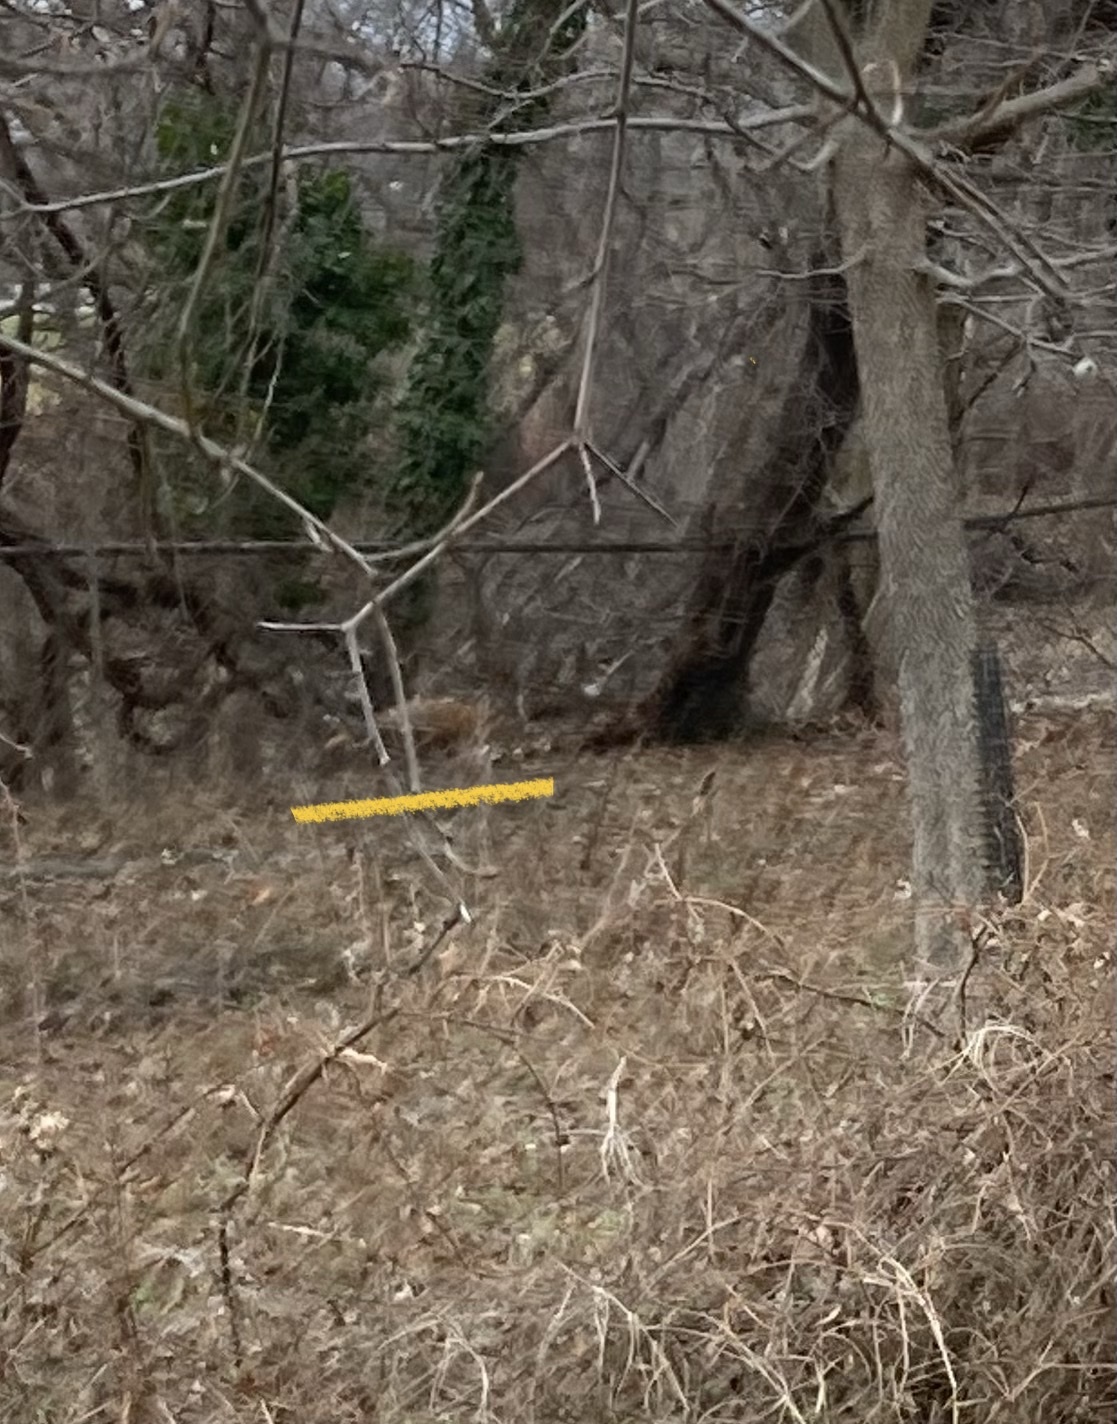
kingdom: Animalia
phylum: Chordata
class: Mammalia
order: Carnivora
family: Canidae
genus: Vulpes
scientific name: Vulpes vulpes
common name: Red fox
